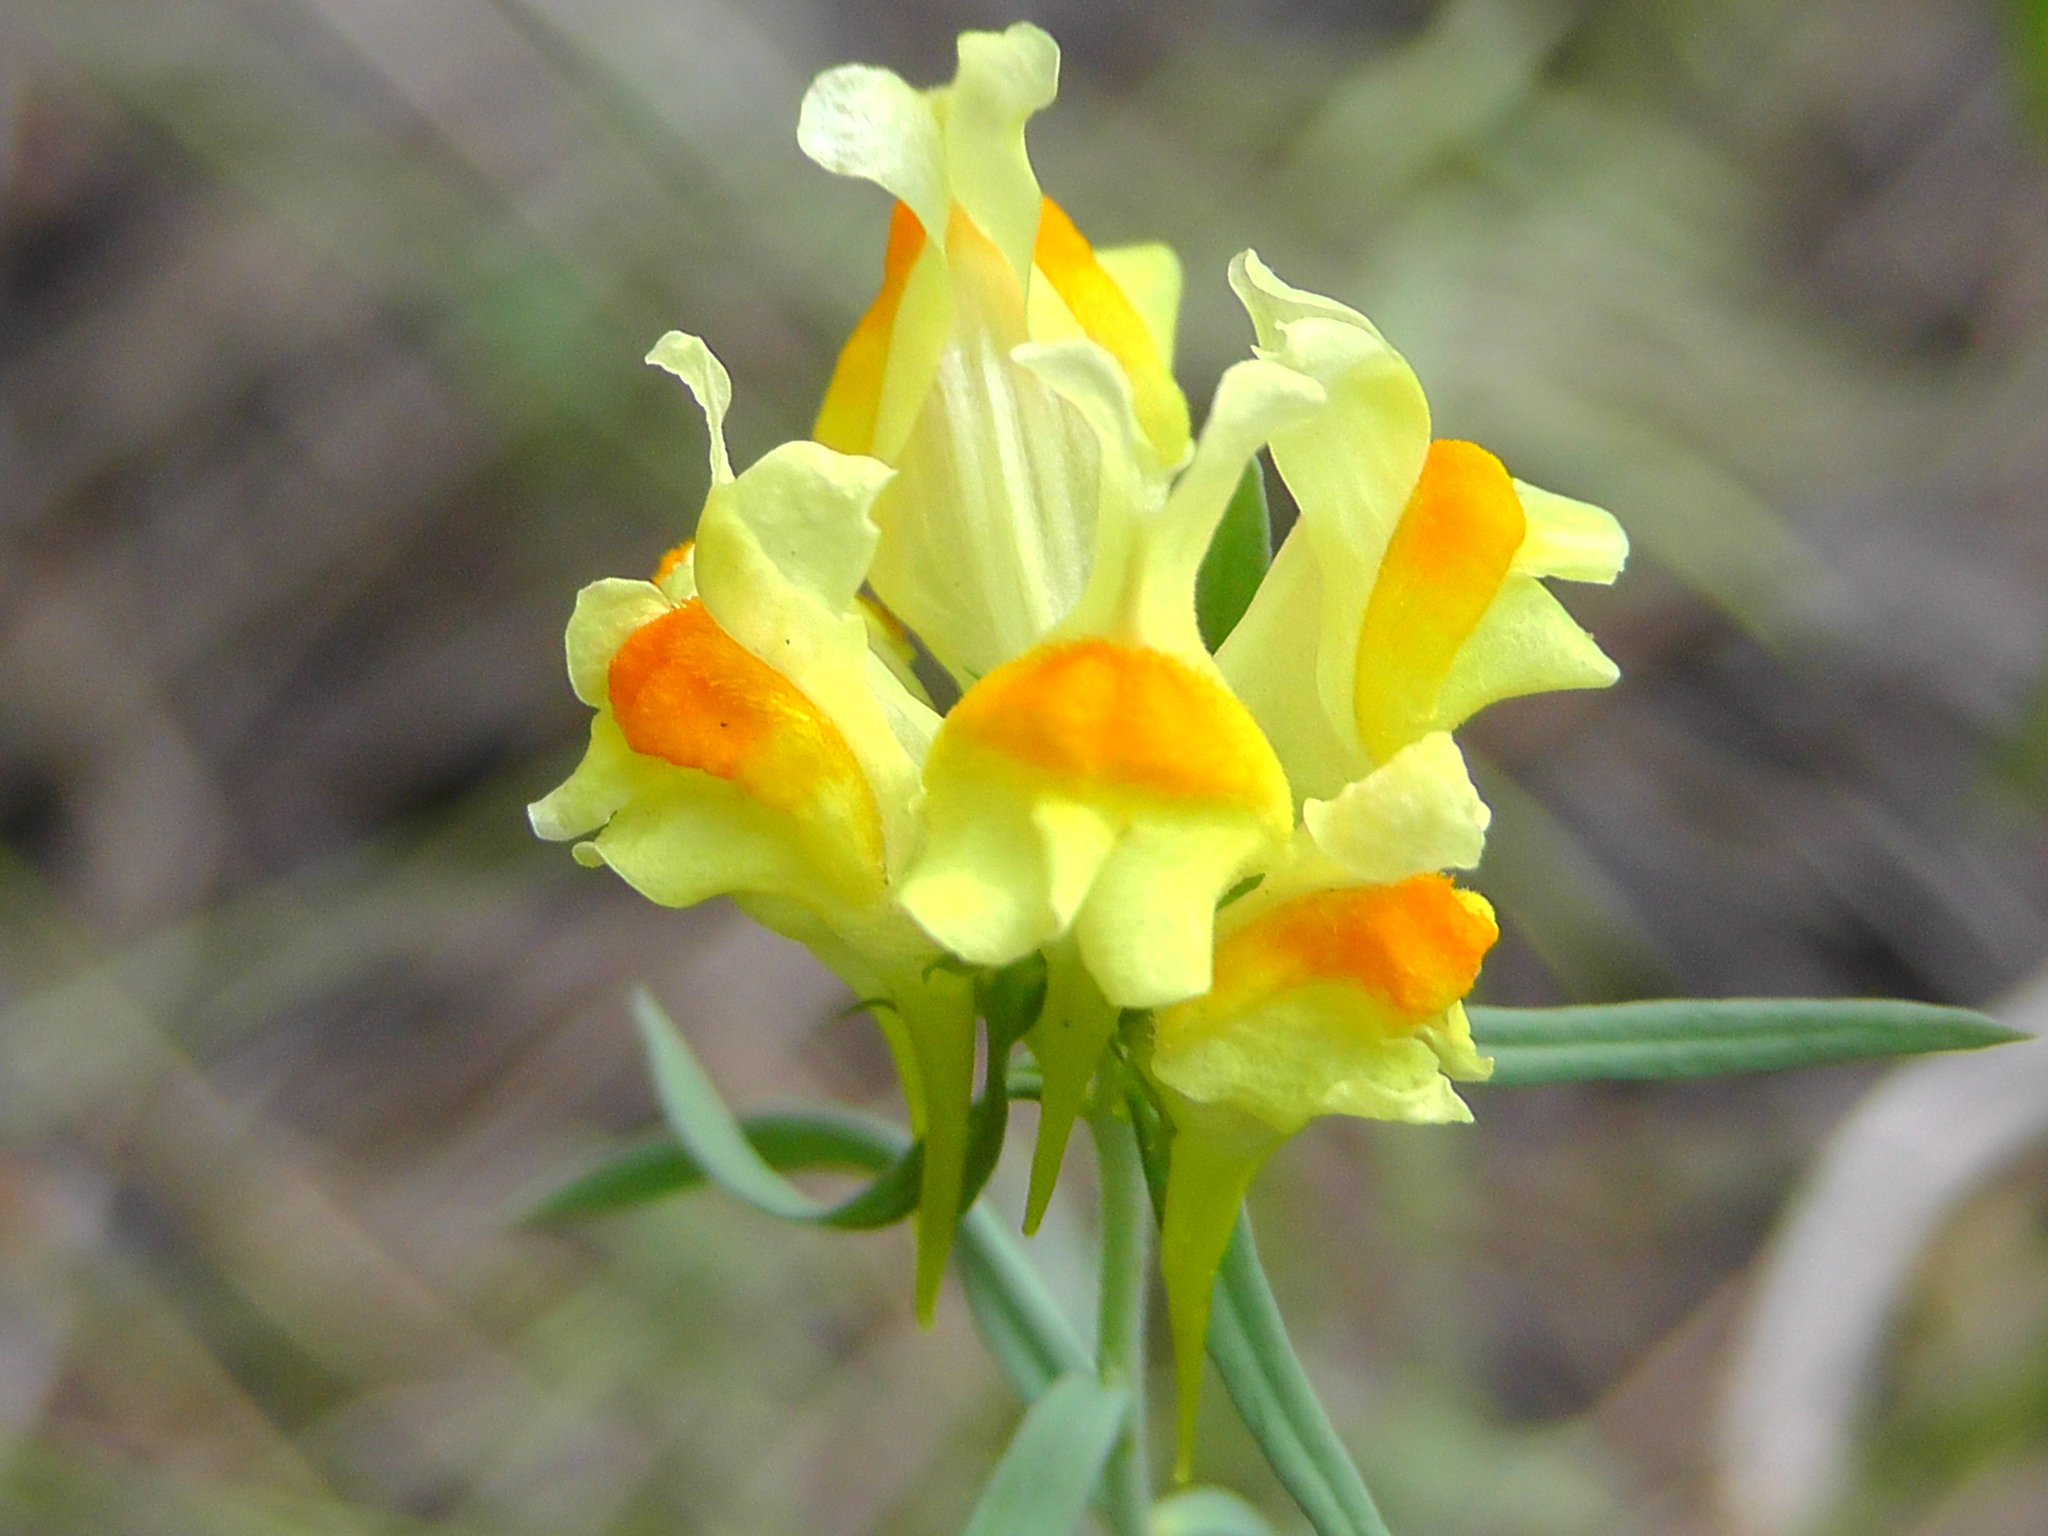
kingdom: Plantae
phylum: Tracheophyta
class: Magnoliopsida
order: Lamiales
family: Plantaginaceae
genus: Linaria
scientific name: Linaria vulgaris
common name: Butter and eggs
